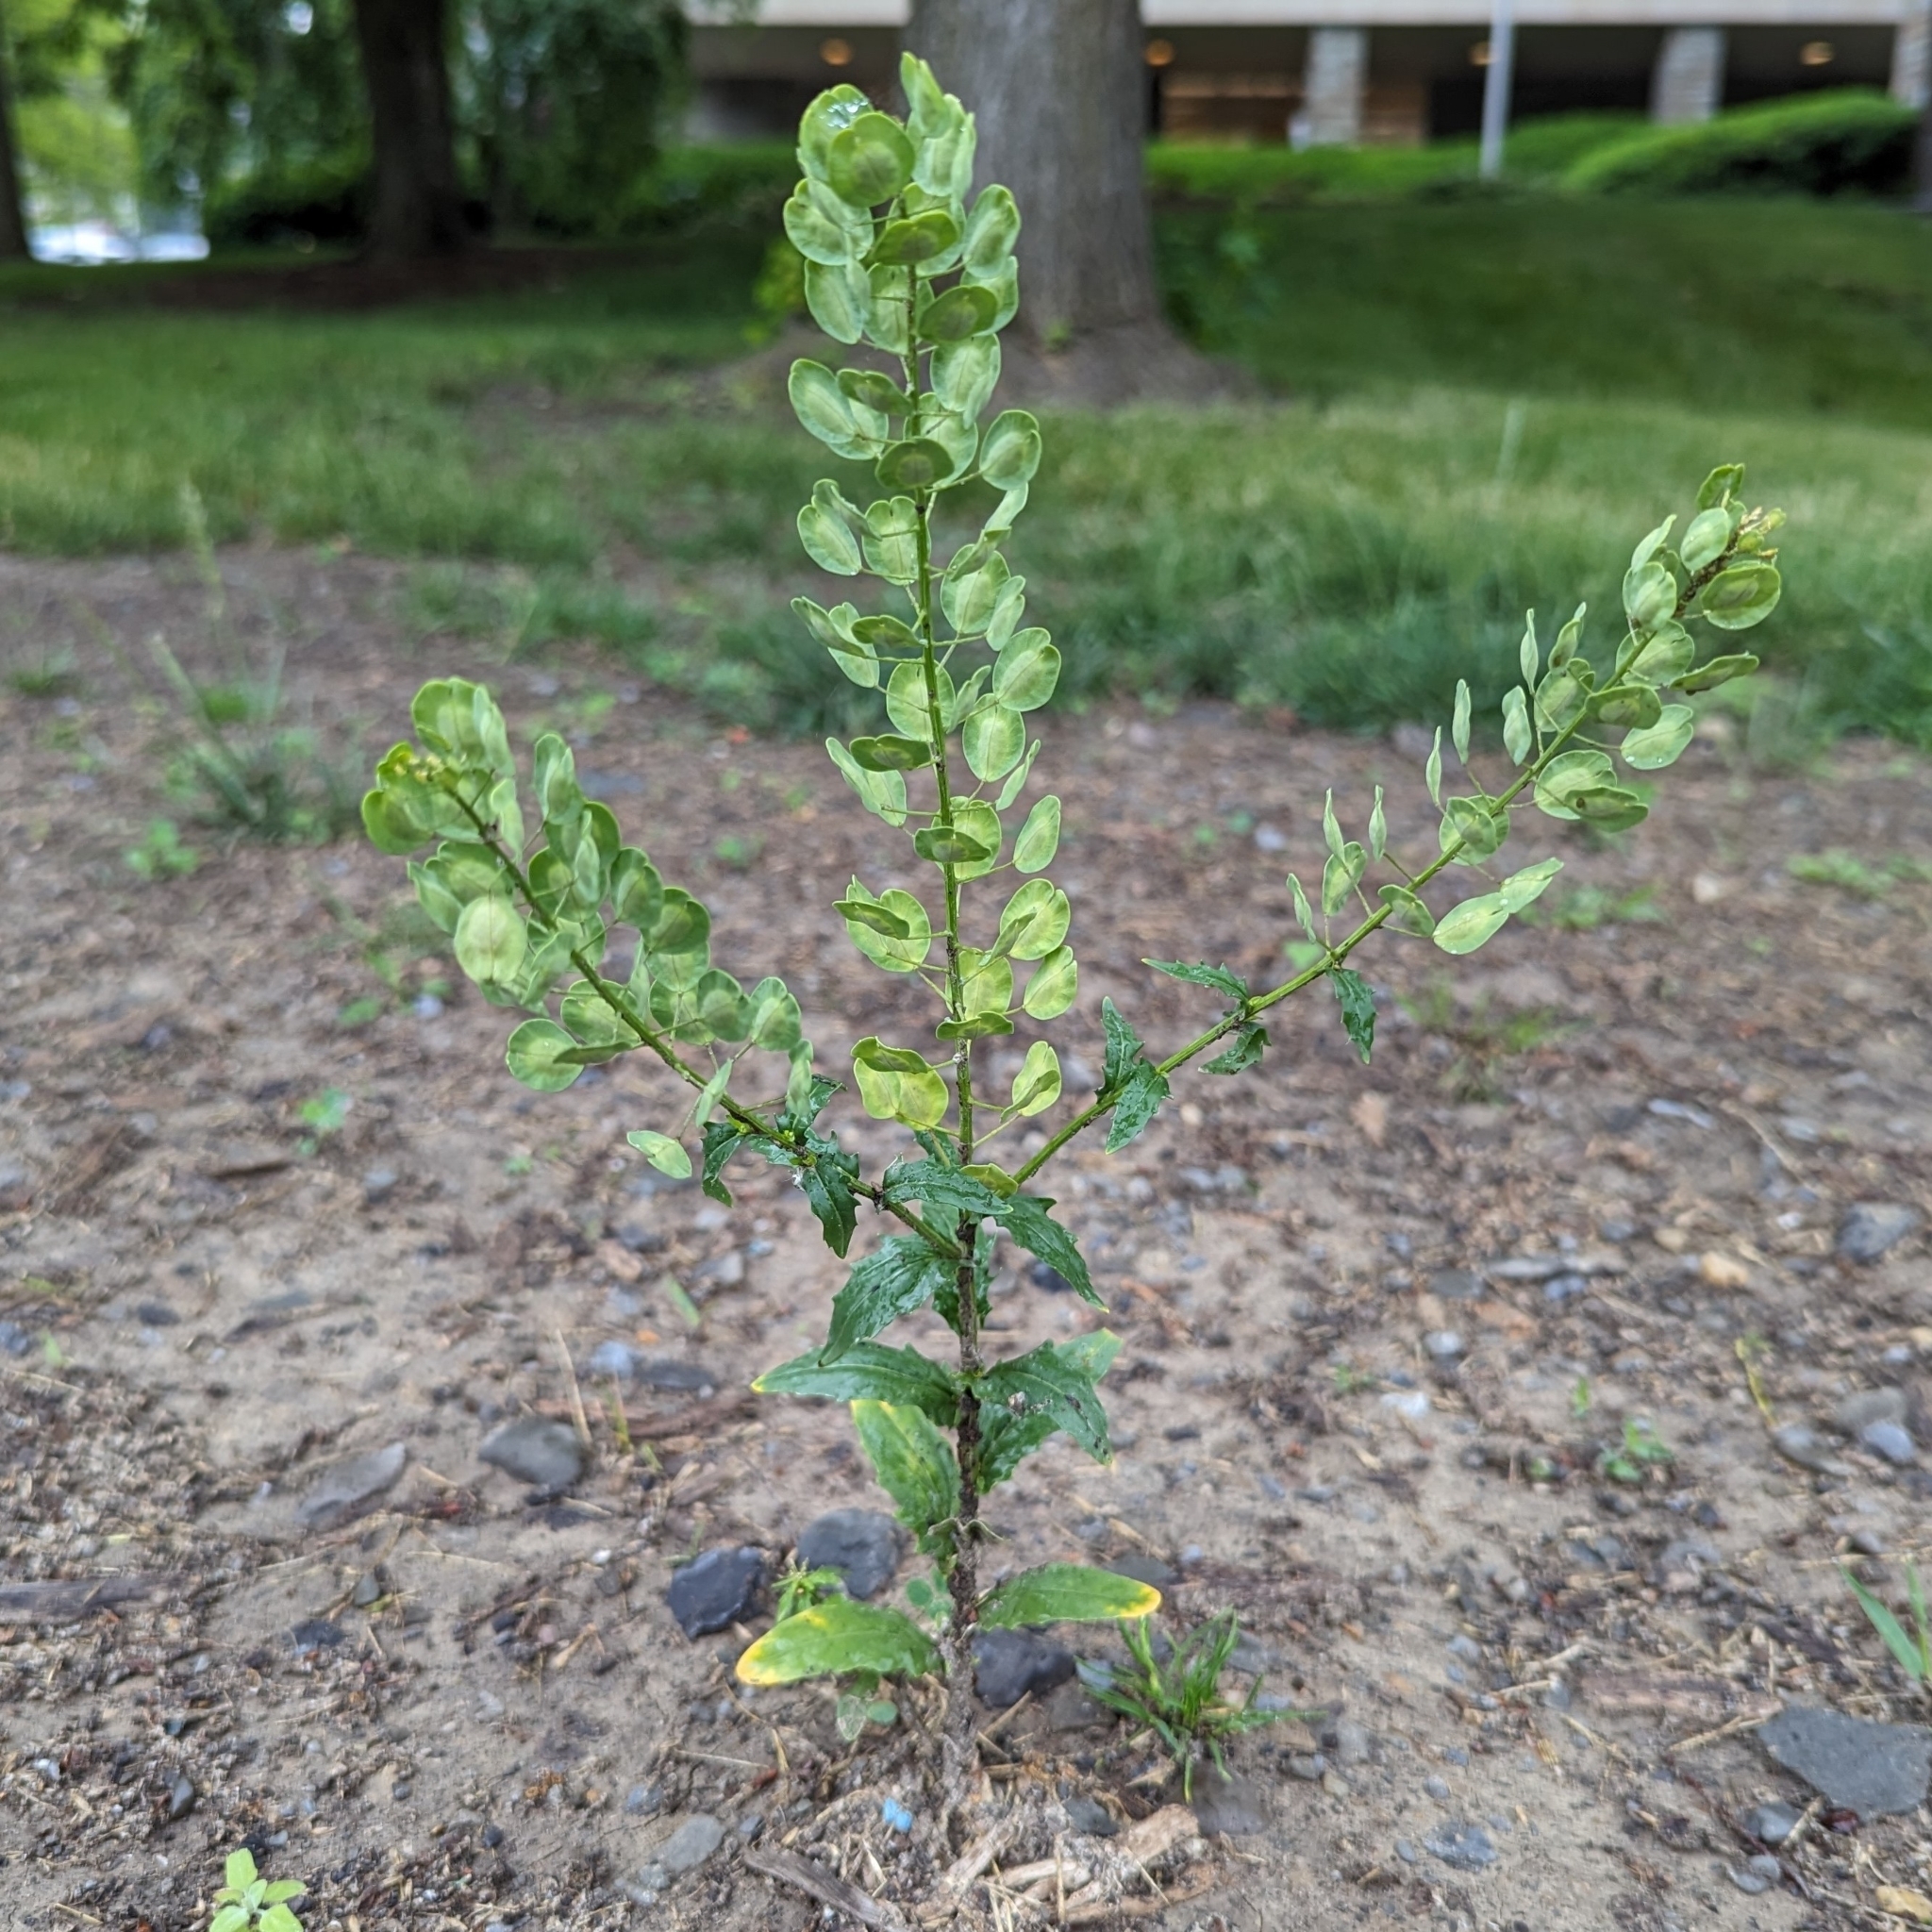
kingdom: Plantae
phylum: Tracheophyta
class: Magnoliopsida
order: Brassicales
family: Brassicaceae
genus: Thlaspi
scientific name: Thlaspi arvense
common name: Field pennycress
